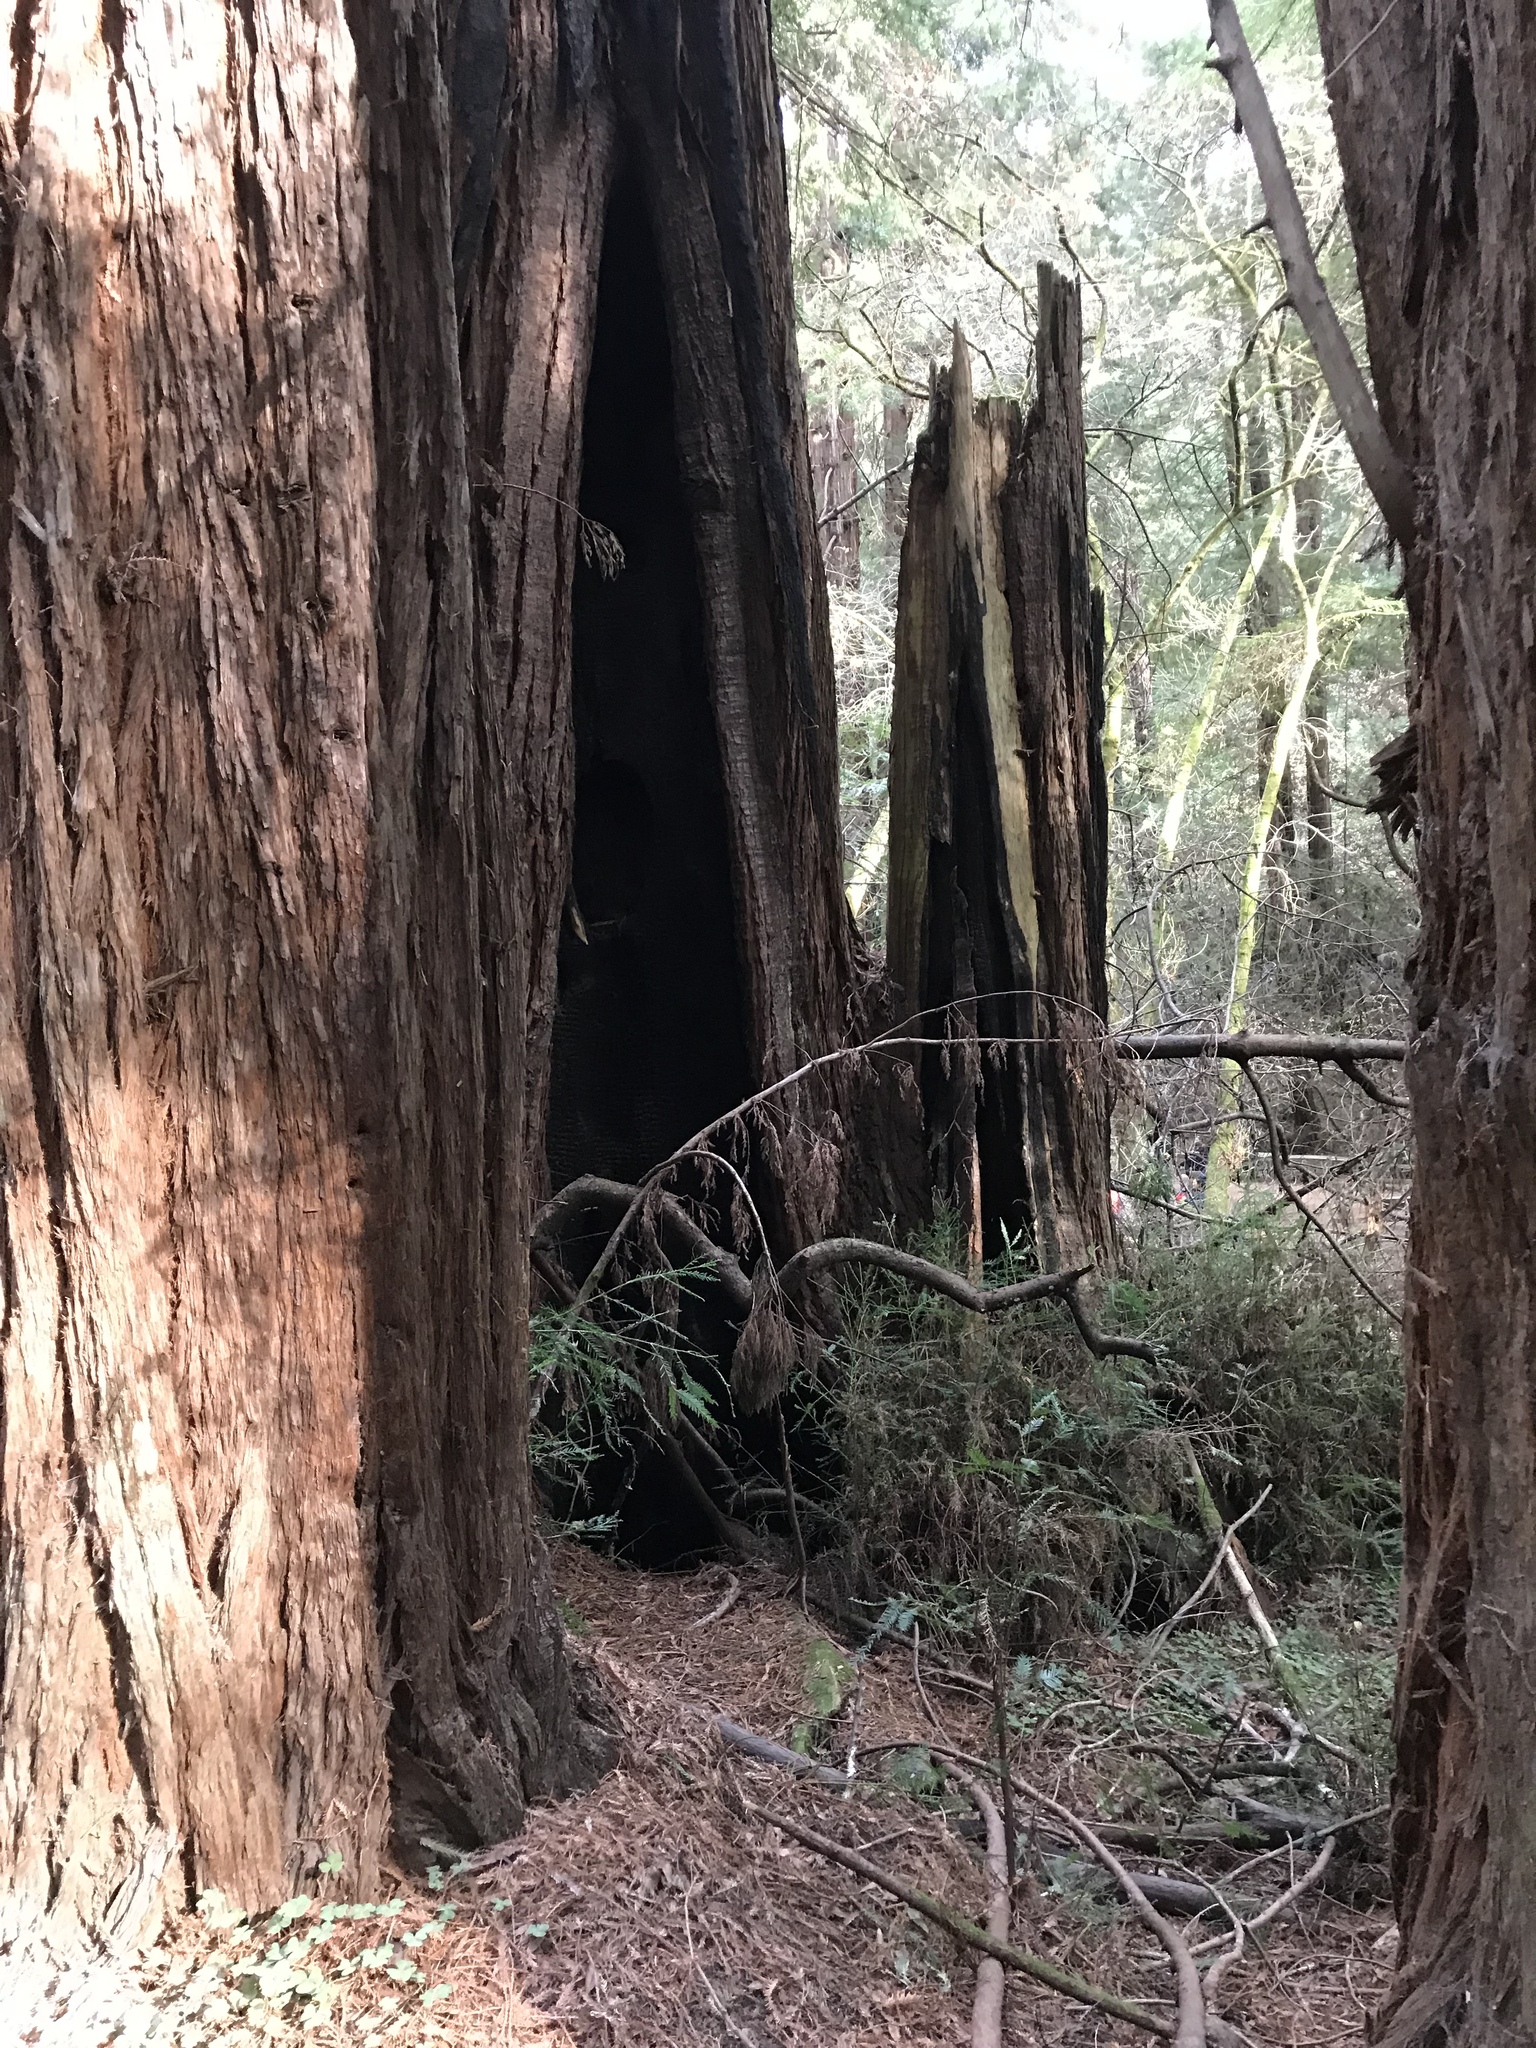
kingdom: Plantae
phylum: Tracheophyta
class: Pinopsida
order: Pinales
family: Cupressaceae
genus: Sequoia
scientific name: Sequoia sempervirens
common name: Coast redwood
